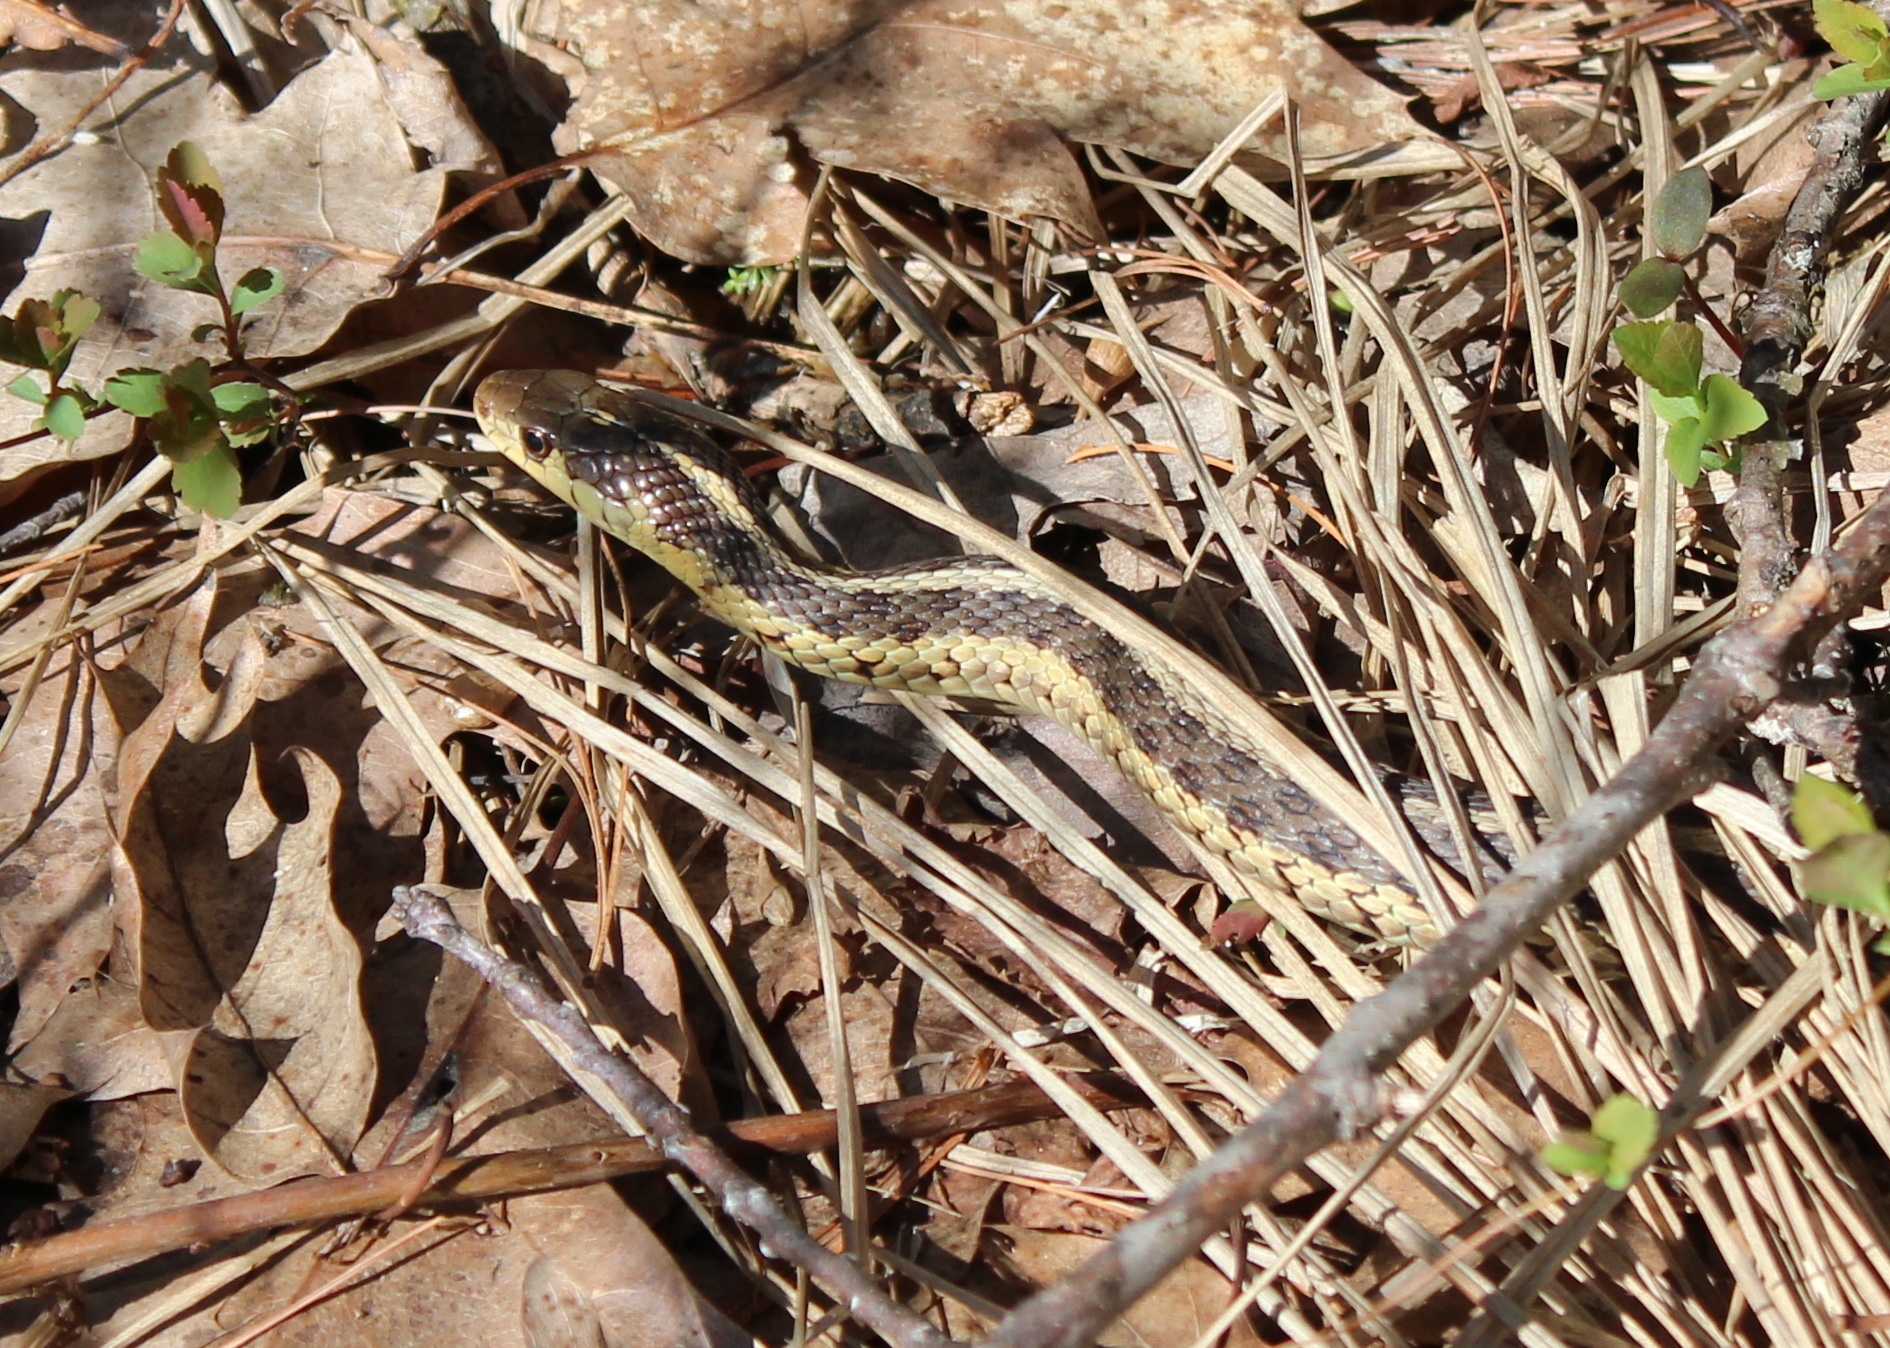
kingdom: Animalia
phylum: Chordata
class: Squamata
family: Colubridae
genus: Thamnophis
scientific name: Thamnophis sirtalis
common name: Common garter snake
